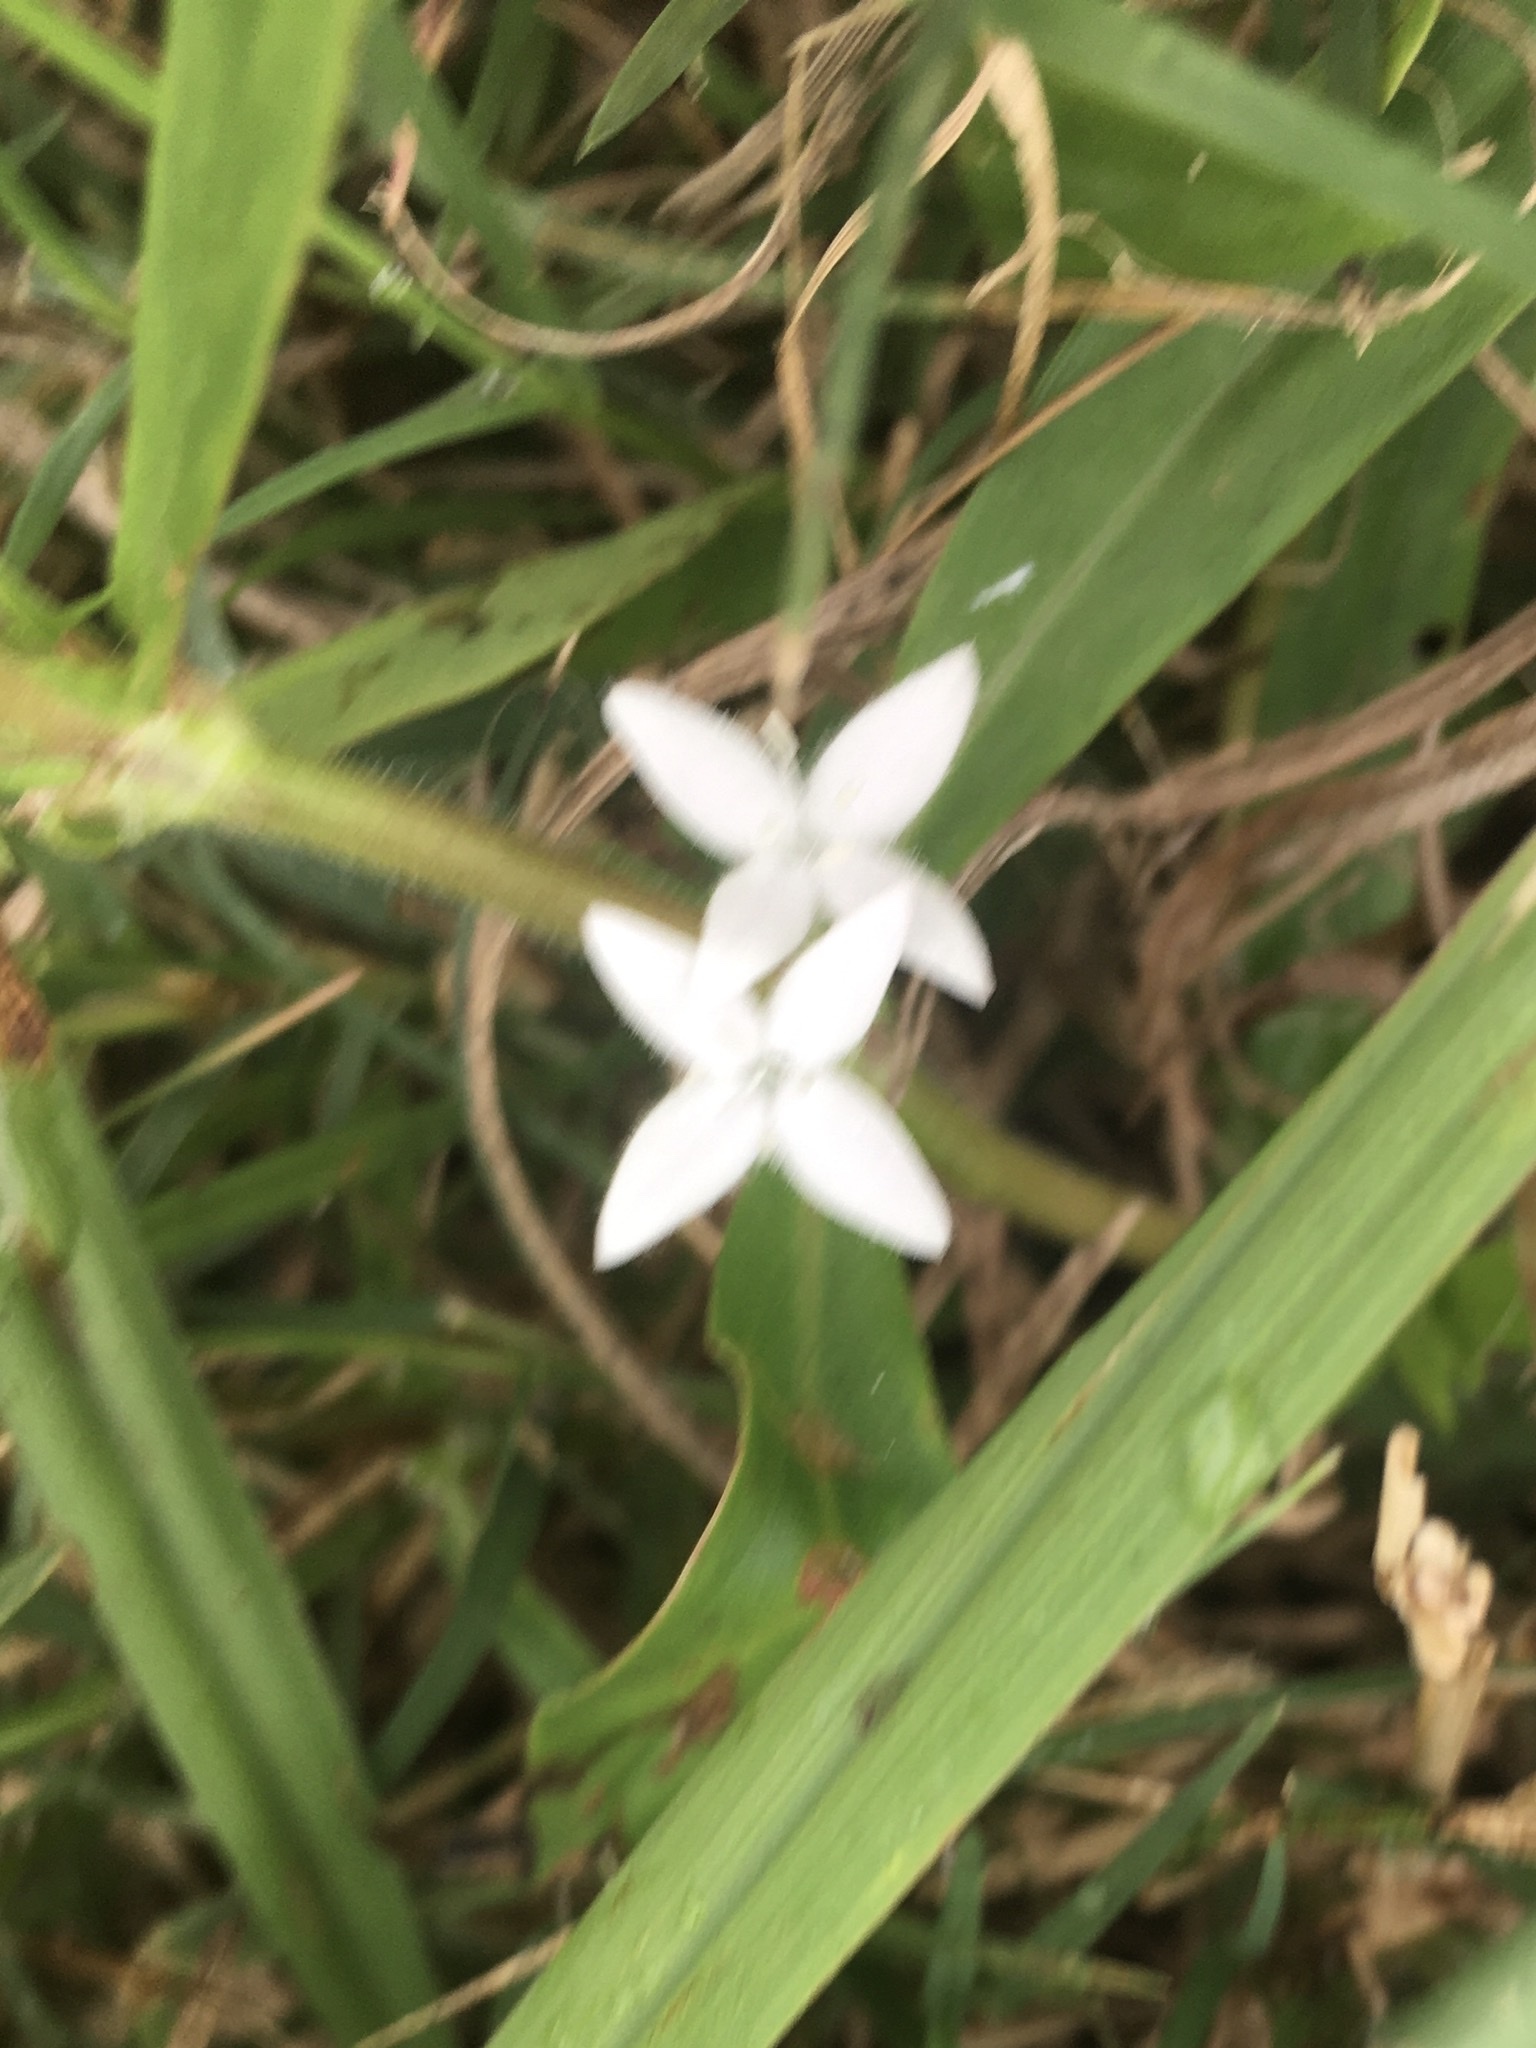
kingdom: Plantae
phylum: Tracheophyta
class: Magnoliopsida
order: Gentianales
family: Rubiaceae
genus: Diodia
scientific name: Diodia virginiana
